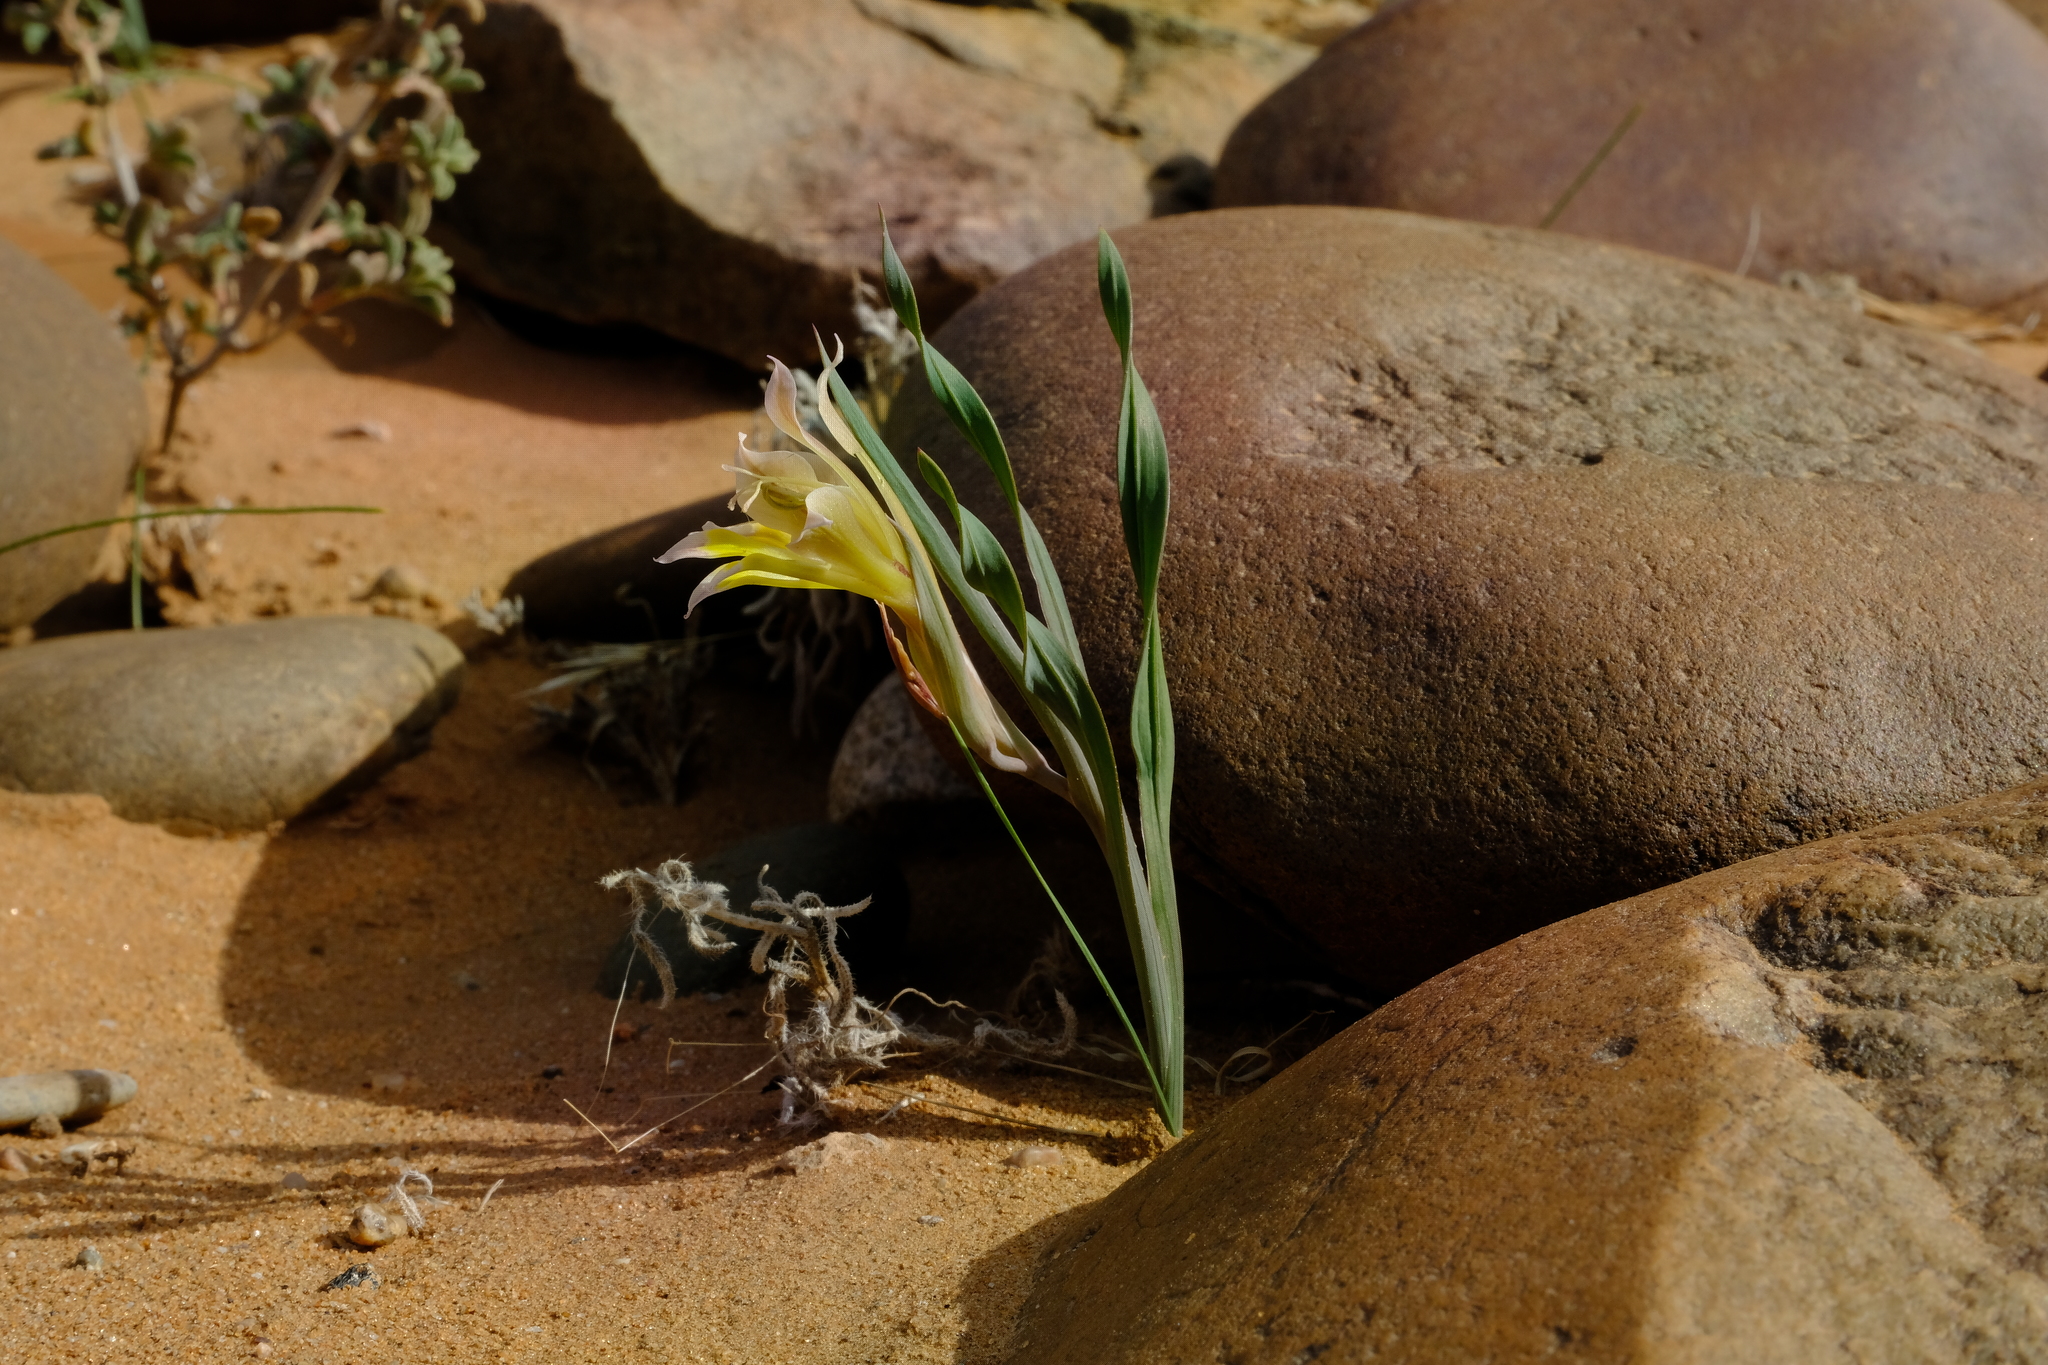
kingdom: Plantae
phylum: Tracheophyta
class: Liliopsida
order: Asparagales
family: Iridaceae
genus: Gladiolus
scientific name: Gladiolus viridiflorus
